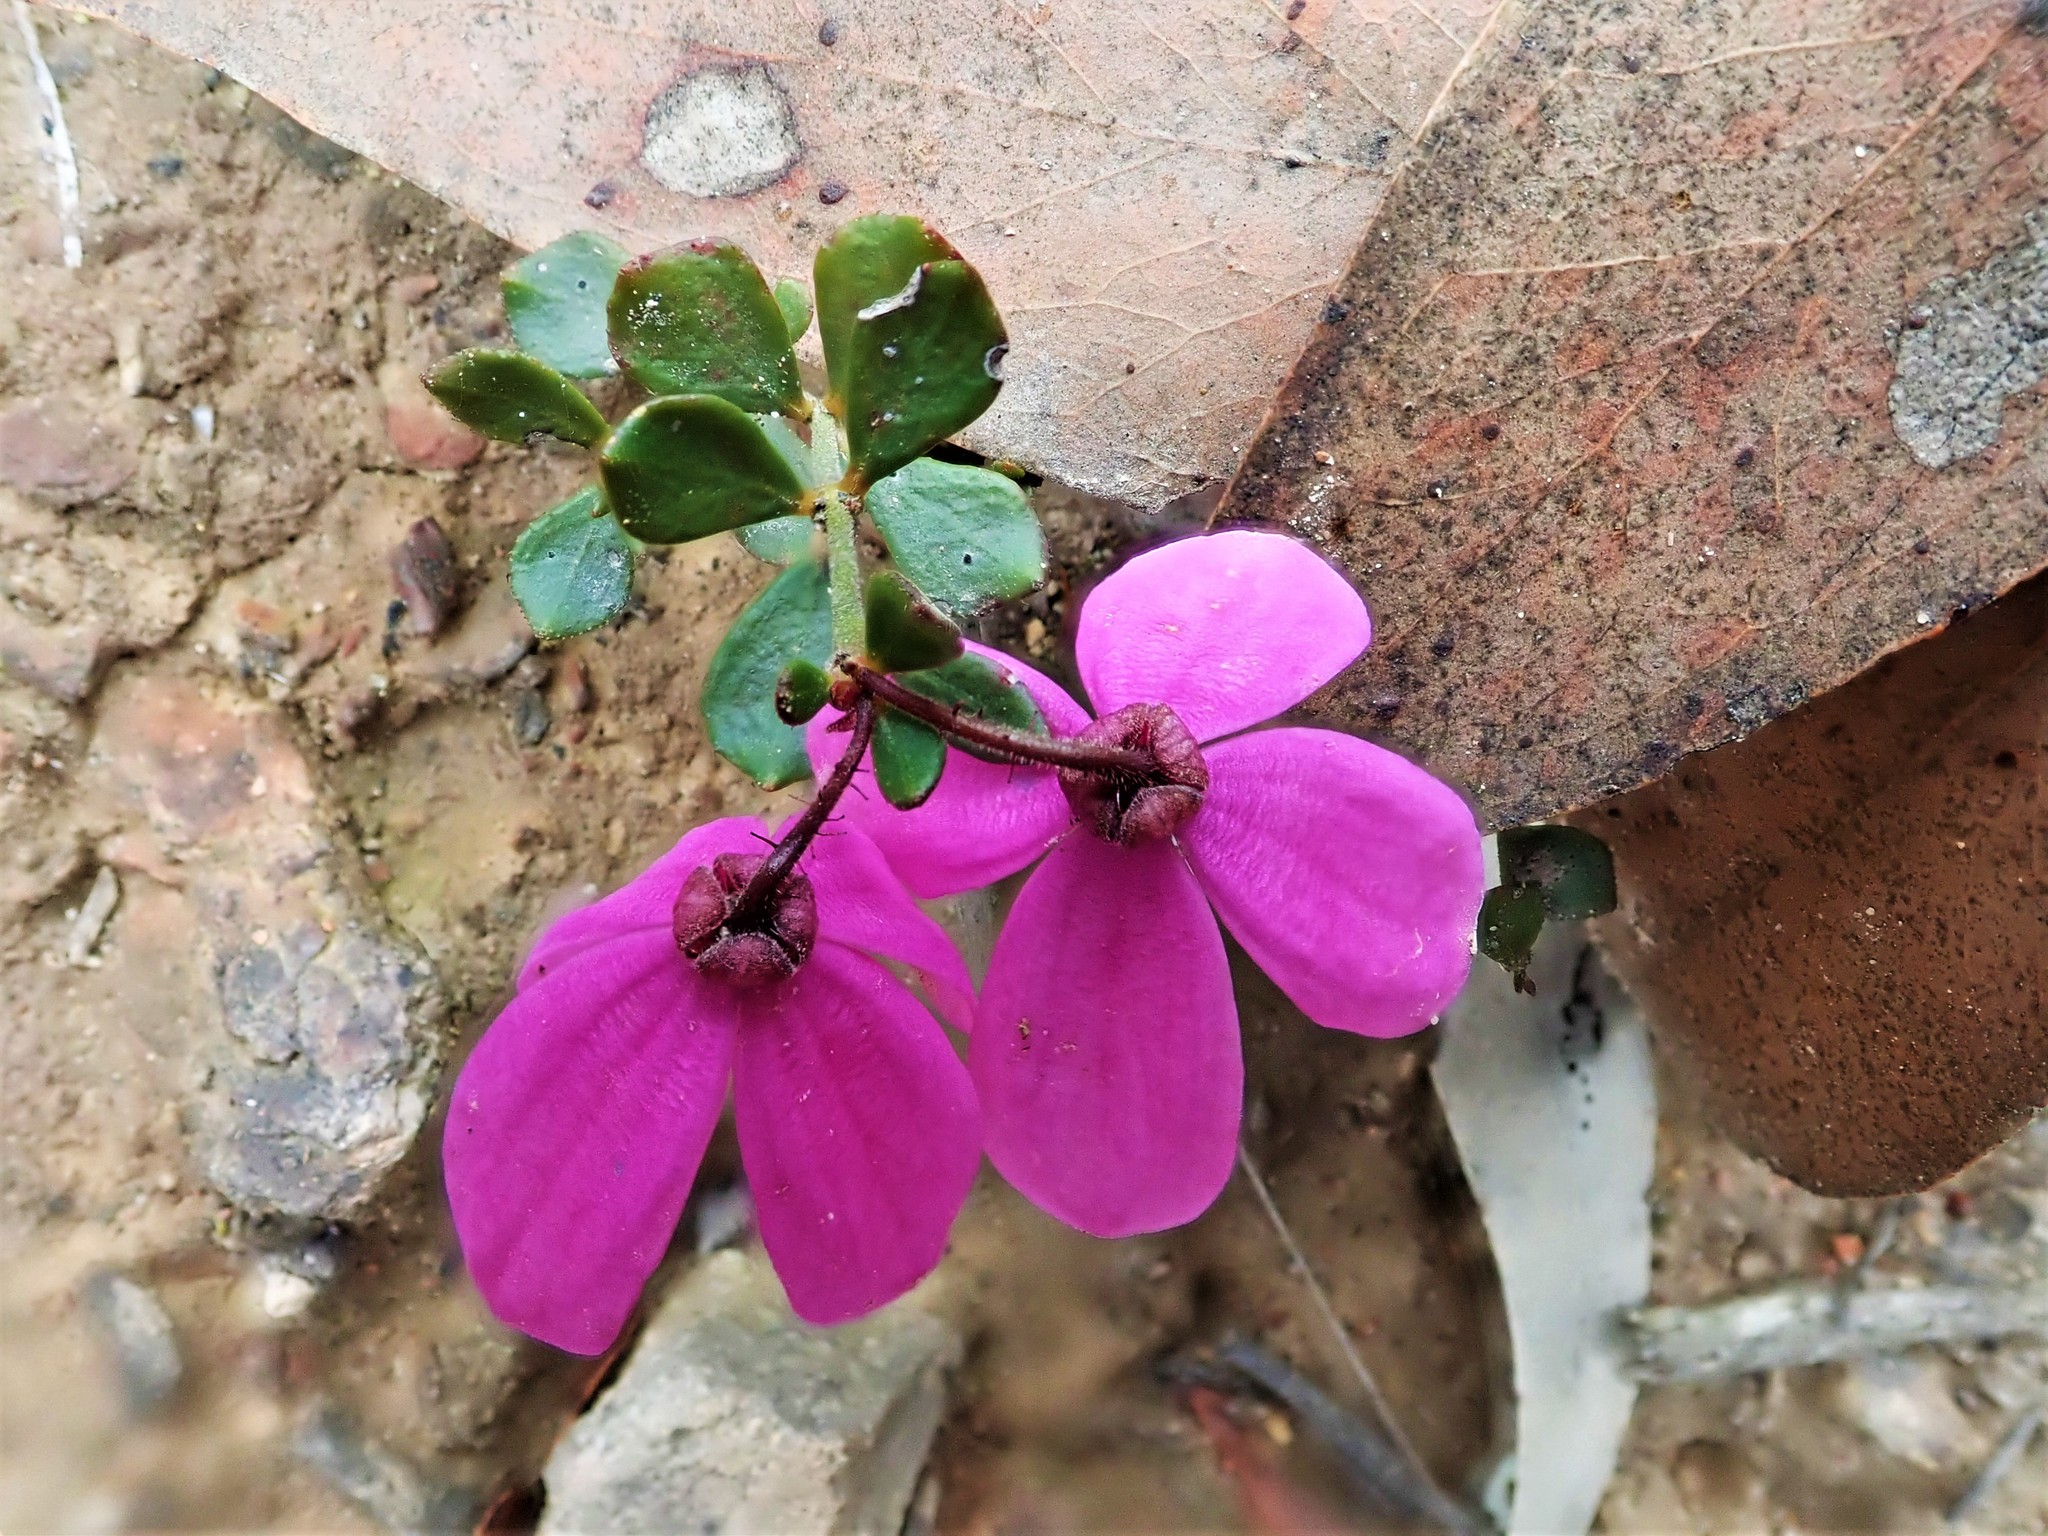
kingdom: Plantae
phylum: Tracheophyta
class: Magnoliopsida
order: Oxalidales
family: Elaeocarpaceae
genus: Tetratheca
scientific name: Tetratheca ciliata
